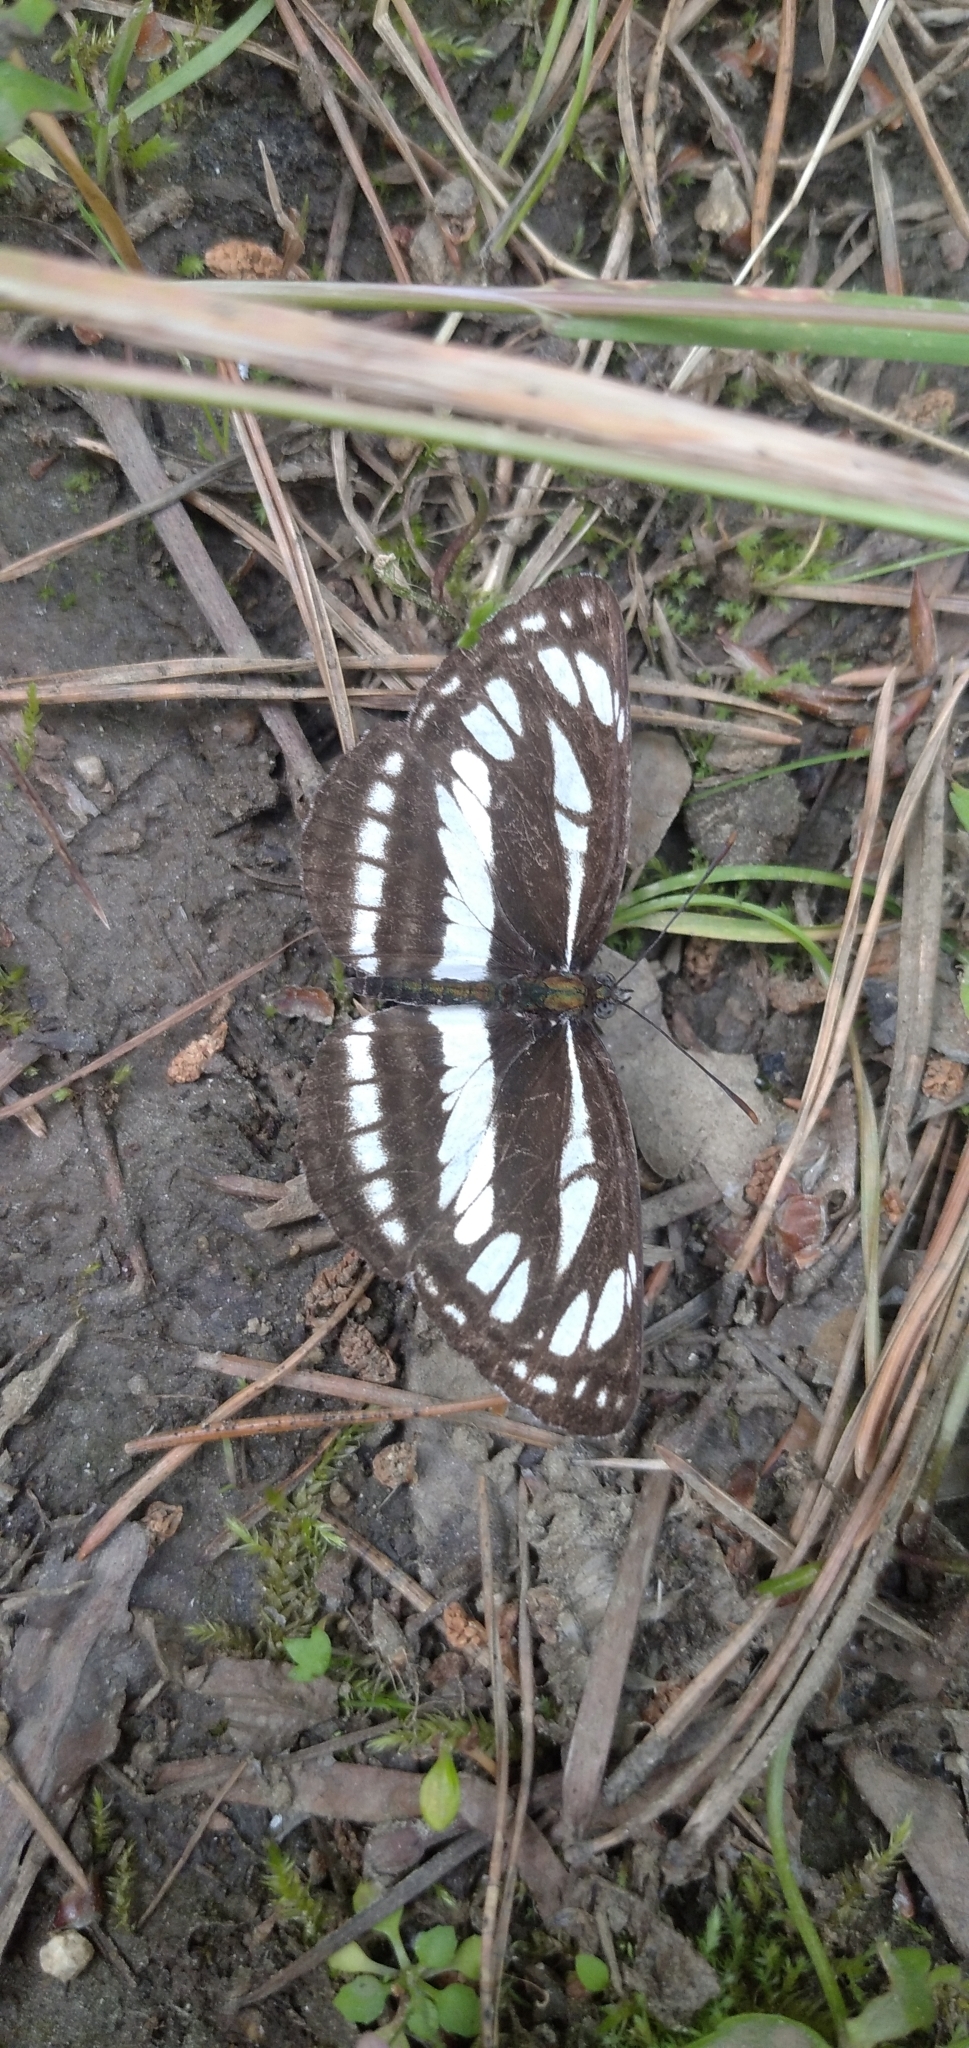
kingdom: Animalia
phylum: Arthropoda
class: Insecta
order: Lepidoptera
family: Nymphalidae
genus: Neptis
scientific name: Neptis sappho
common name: Common glider
